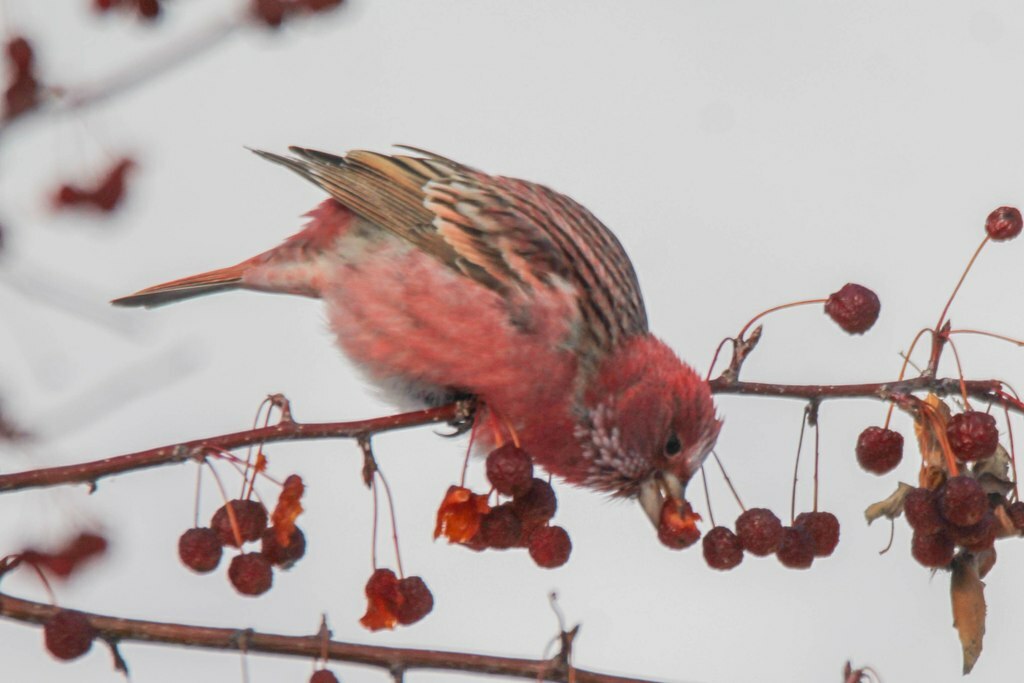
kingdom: Animalia
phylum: Chordata
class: Aves
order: Passeriformes
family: Fringillidae
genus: Carpodacus
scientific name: Carpodacus roseus
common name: Pallas's rosefinch
